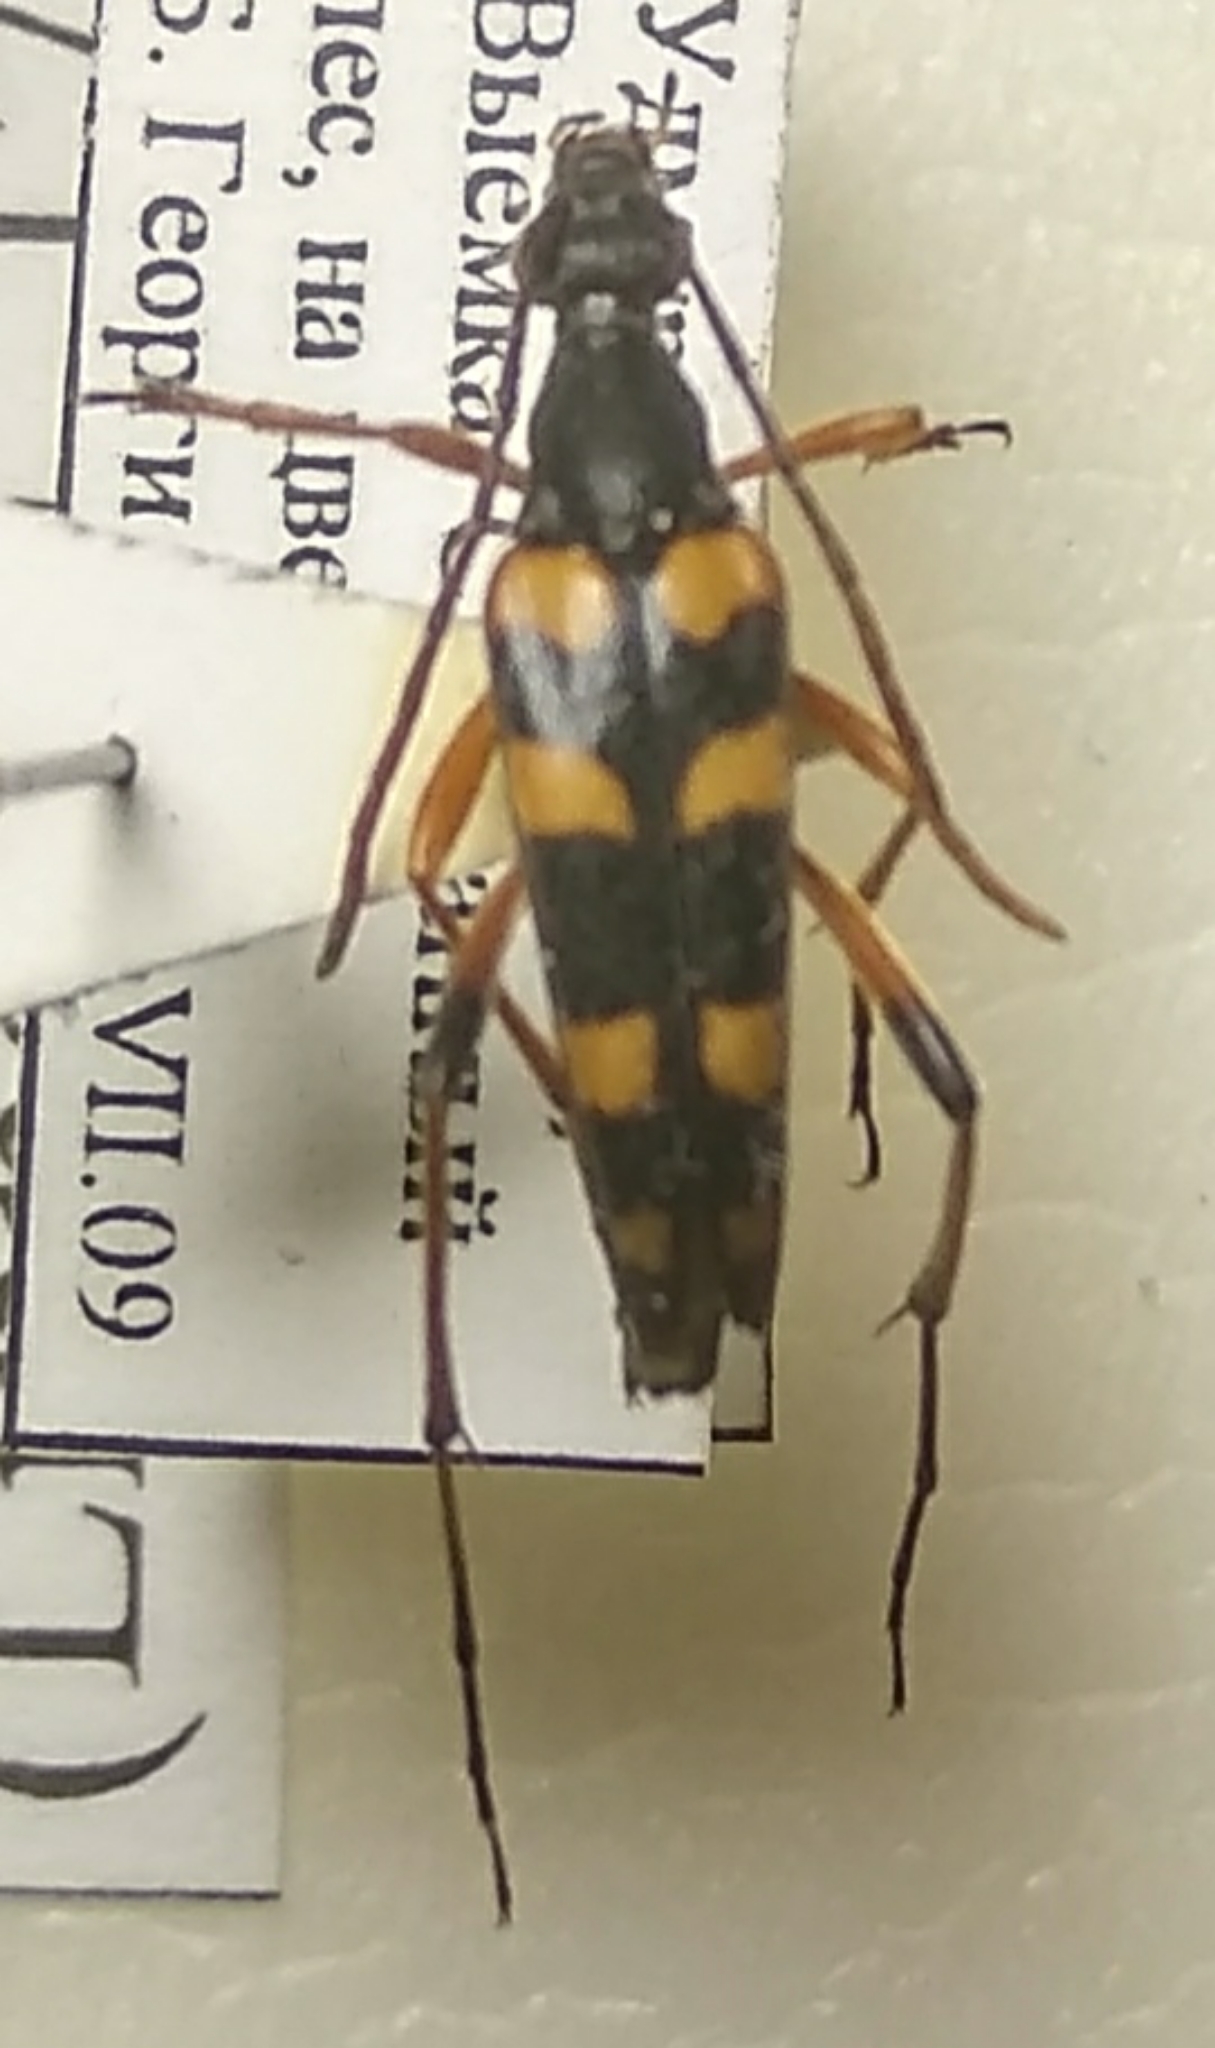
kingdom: Animalia
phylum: Arthropoda
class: Insecta
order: Coleoptera
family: Cerambycidae
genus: Strangalia
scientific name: Strangalia attenuata
